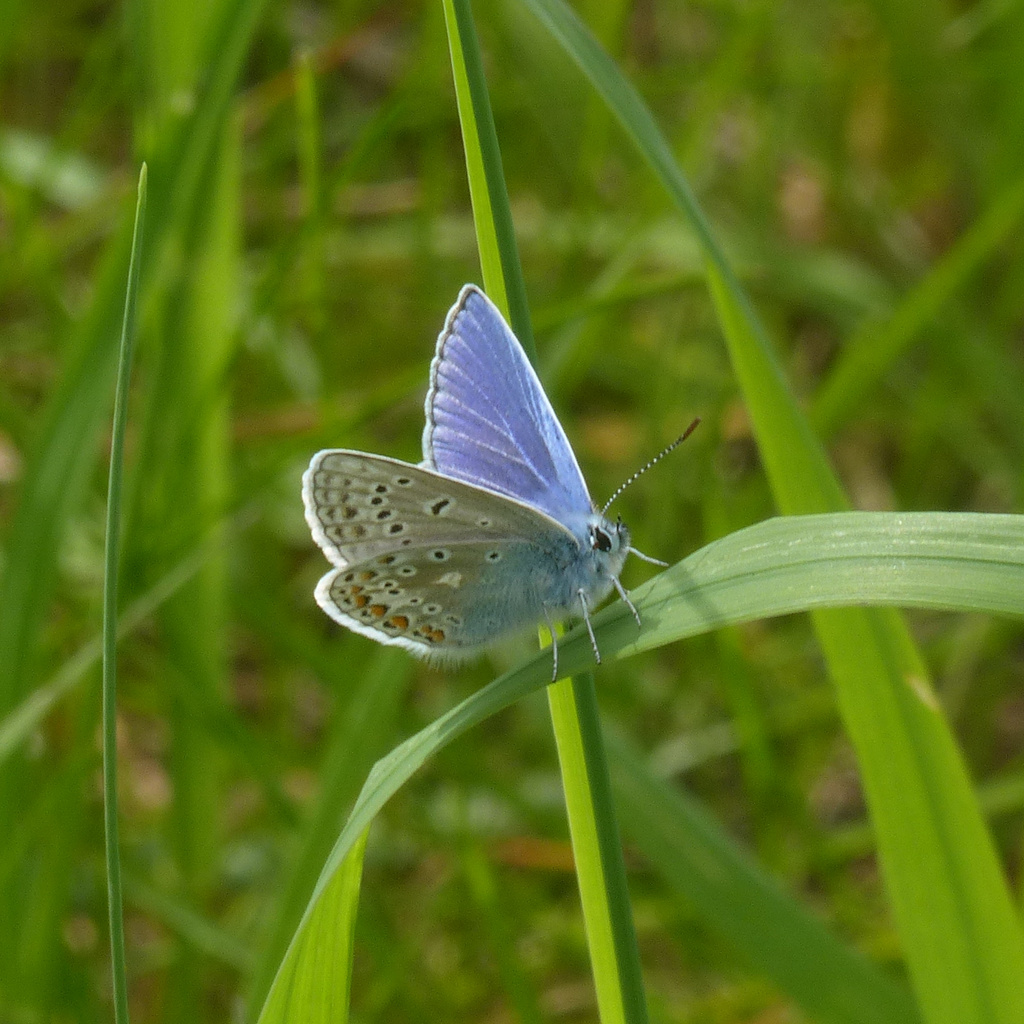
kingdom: Animalia
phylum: Arthropoda
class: Insecta
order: Lepidoptera
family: Lycaenidae
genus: Polyommatus
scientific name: Polyommatus icarus
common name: Common blue
